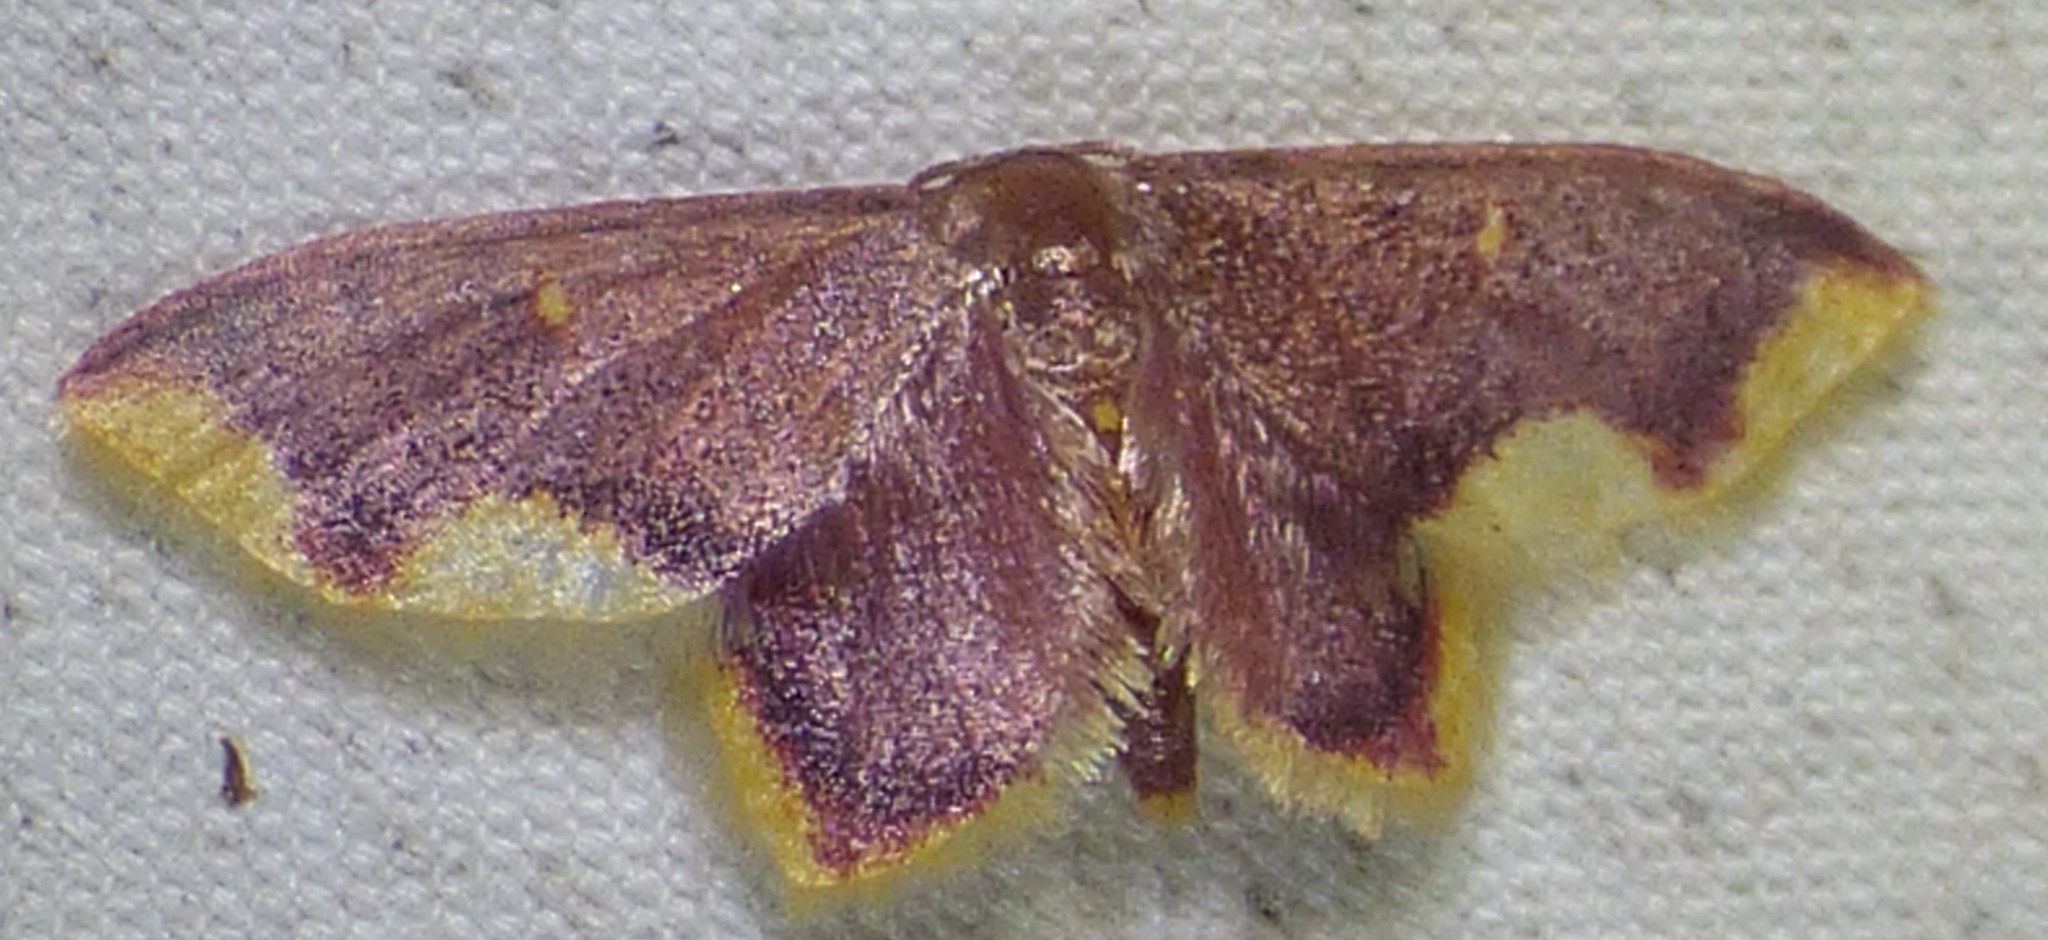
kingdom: Animalia
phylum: Arthropoda
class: Insecta
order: Lepidoptera
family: Geometridae
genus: Lophosis
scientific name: Lophosis labeculata
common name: Stained lophosis moth
